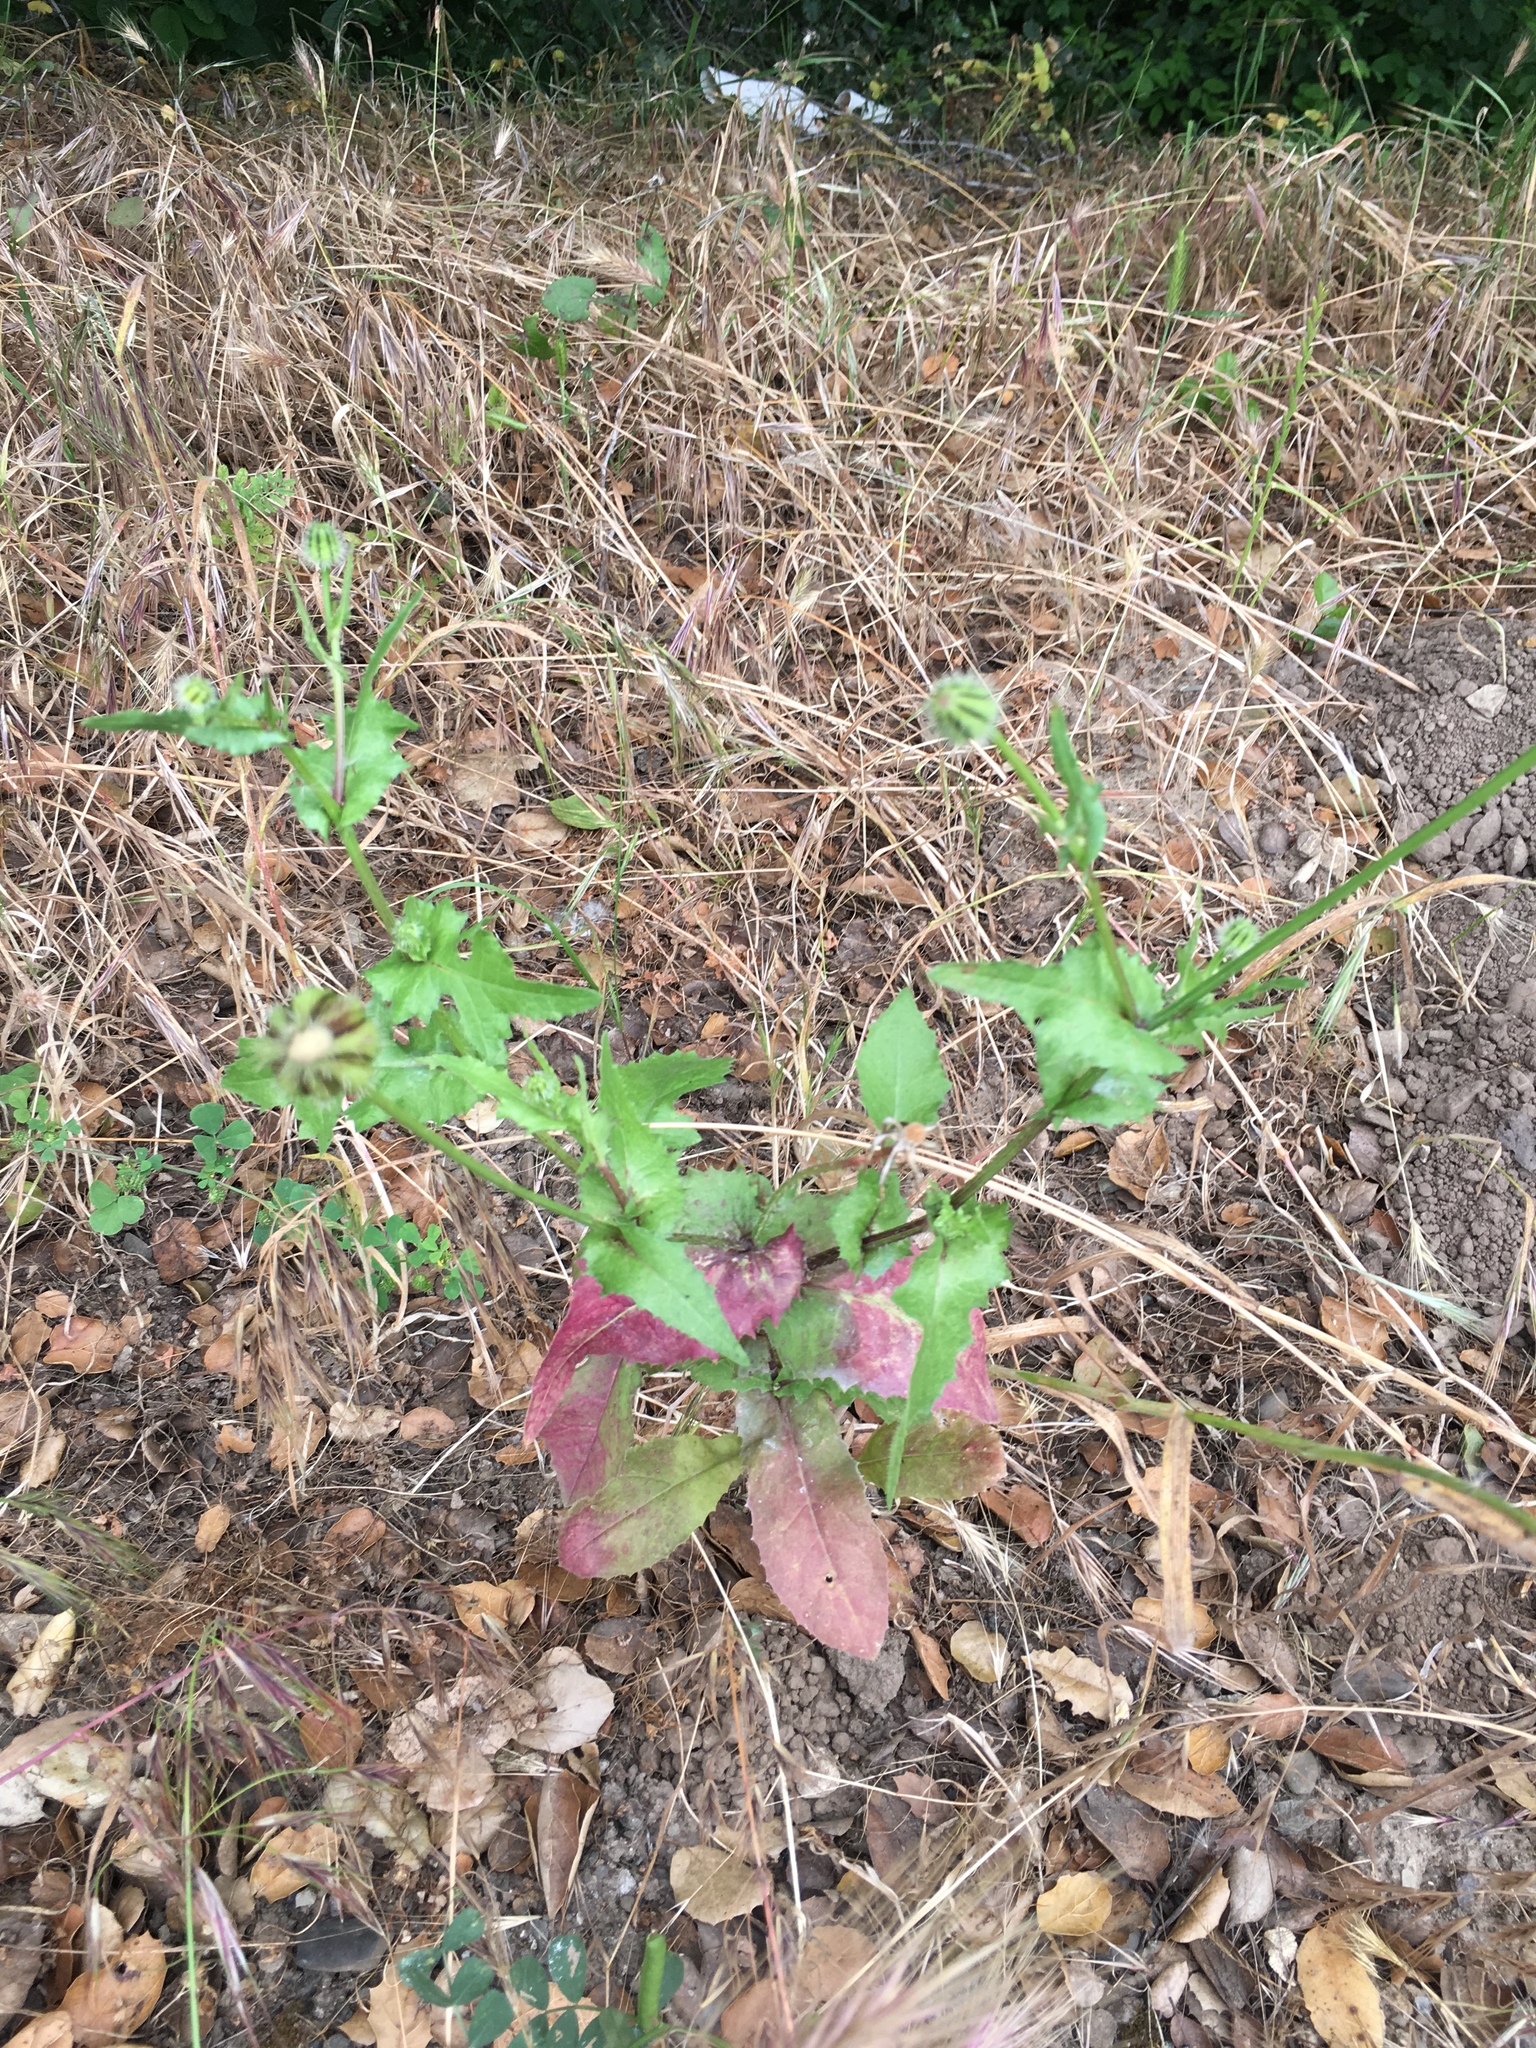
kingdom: Plantae
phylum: Tracheophyta
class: Magnoliopsida
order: Asterales
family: Asteraceae
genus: Urospermum
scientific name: Urospermum picroides
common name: False hawkbit
